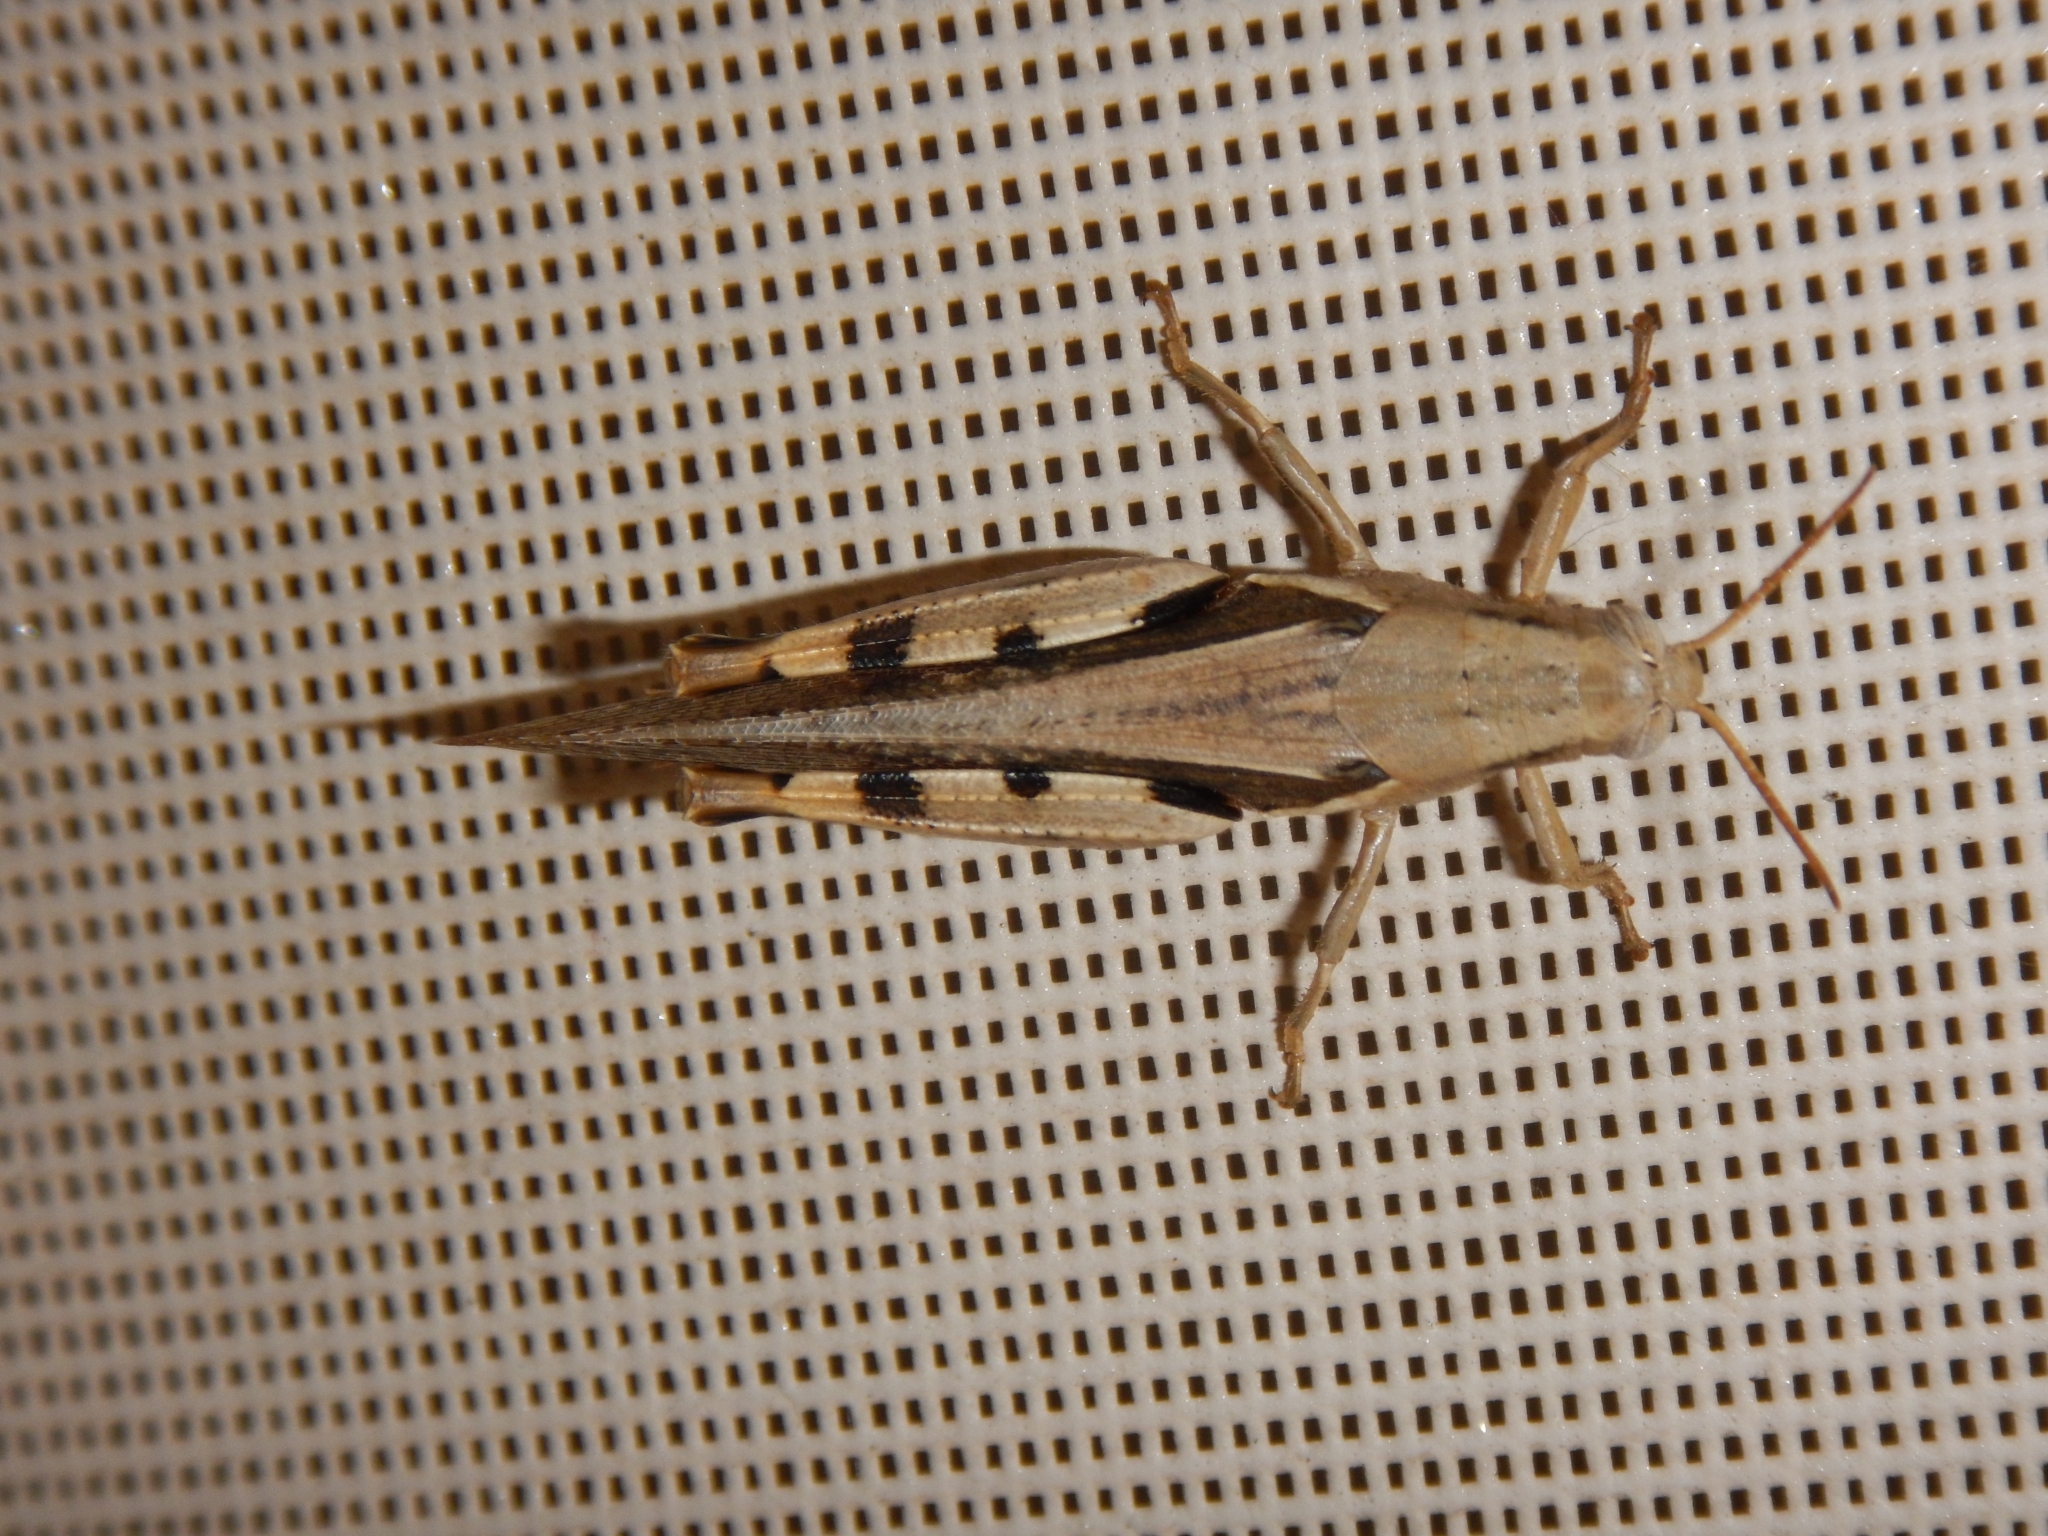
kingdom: Animalia
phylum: Arthropoda
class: Insecta
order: Orthoptera
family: Acrididae
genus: Diabolocatantops
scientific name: Diabolocatantops axillaris
